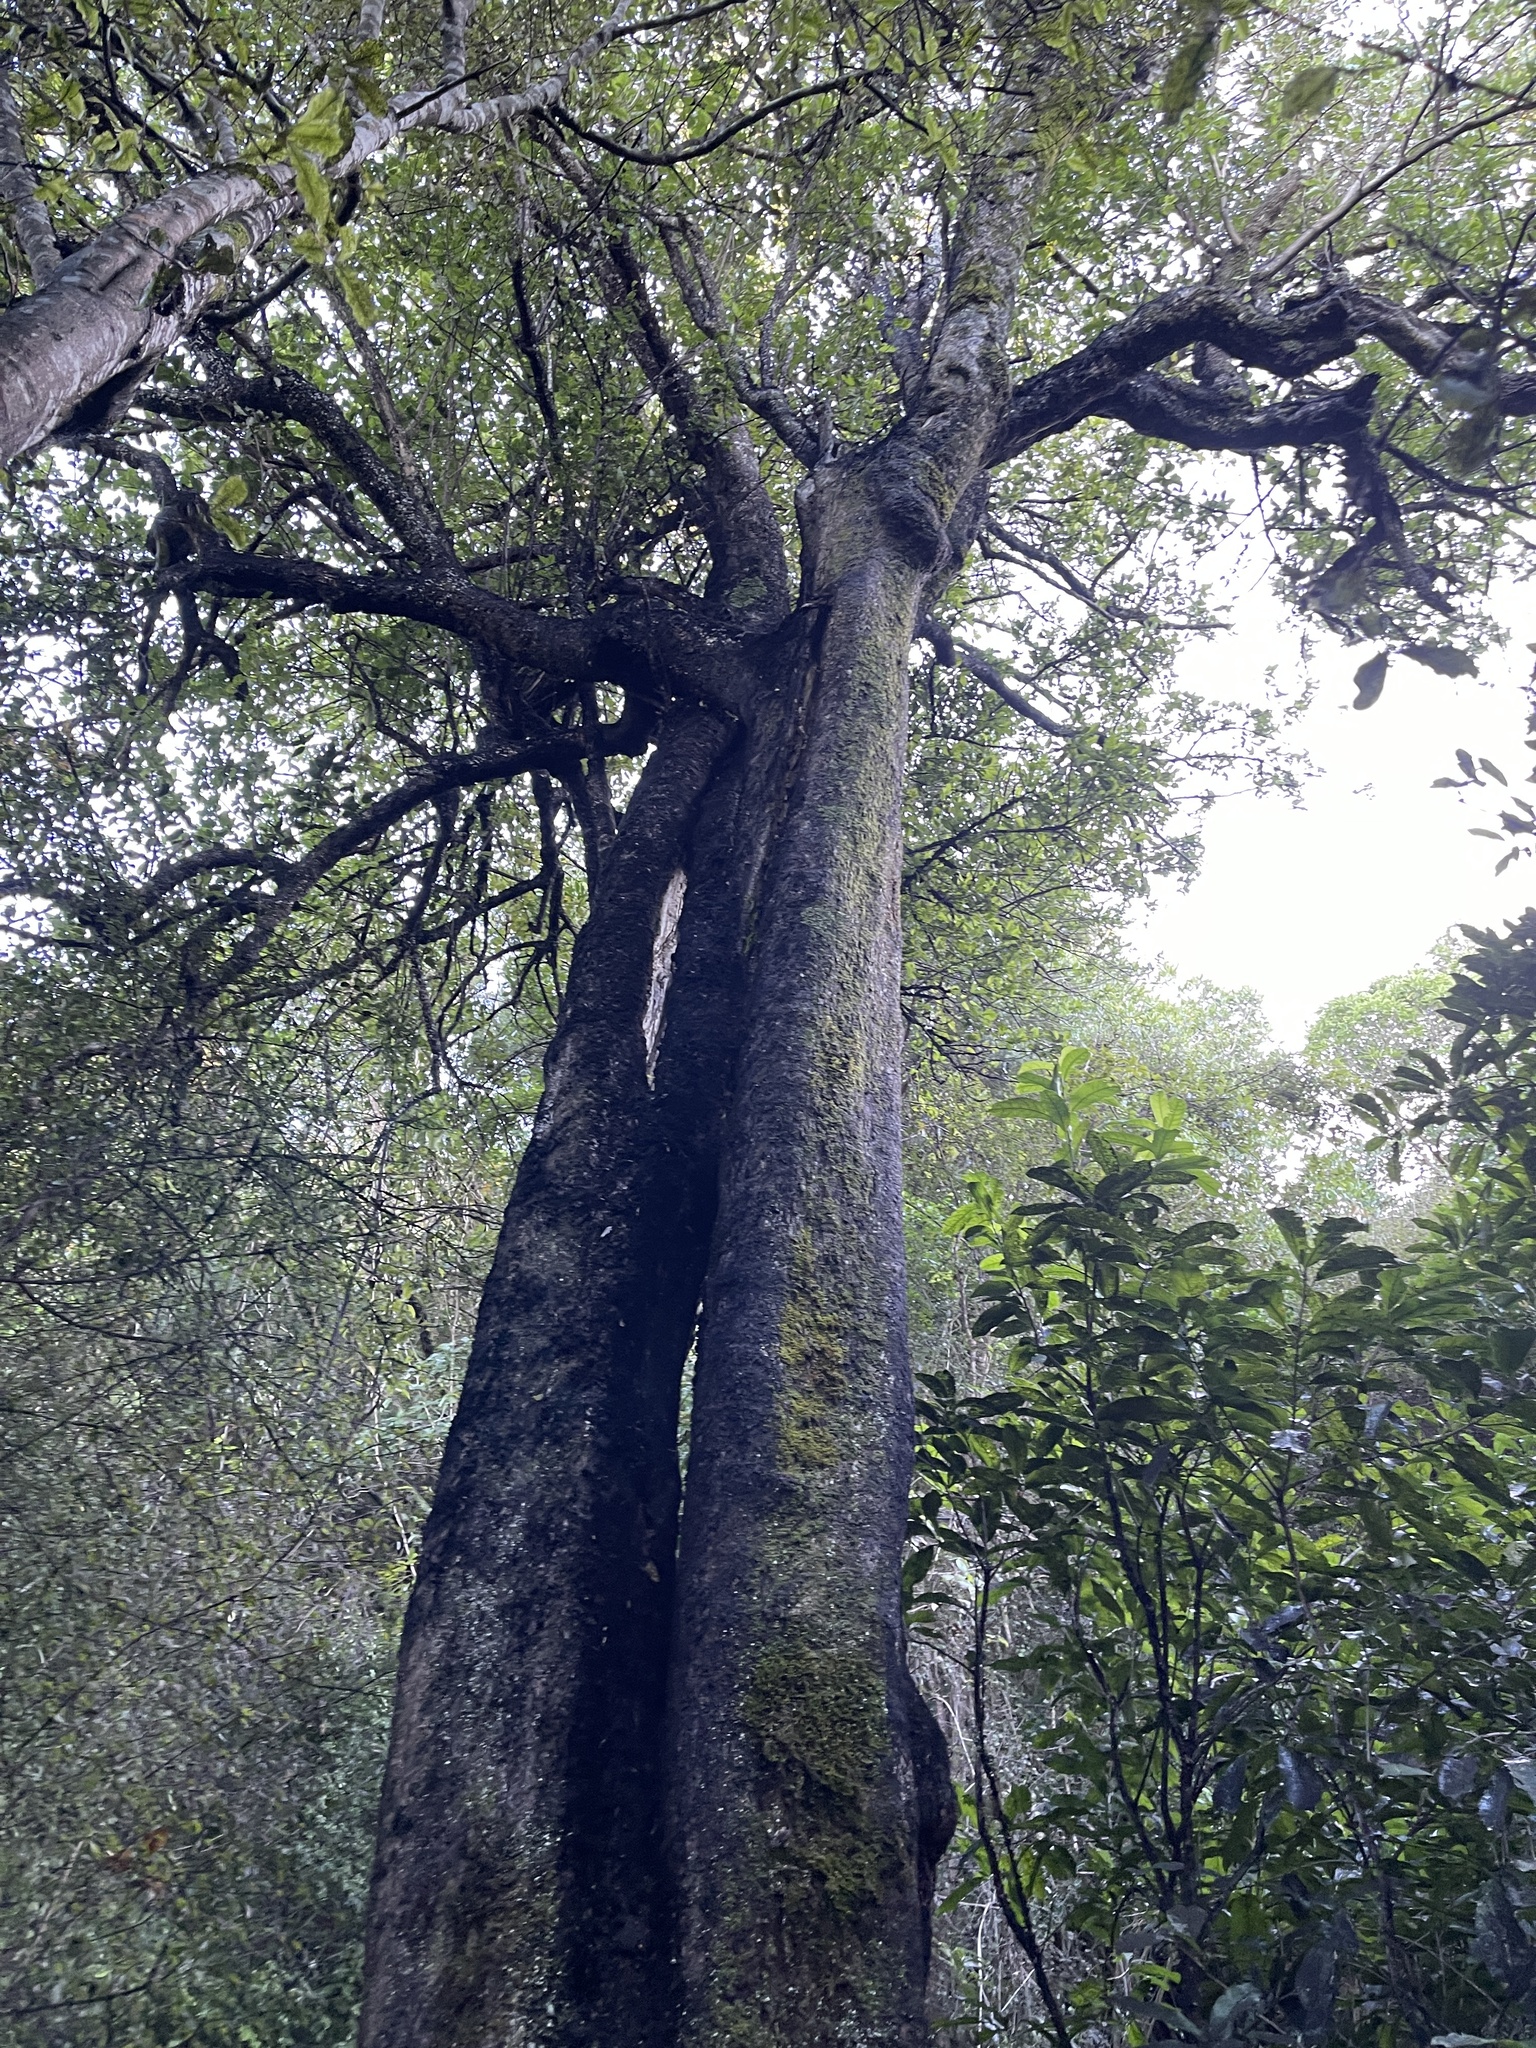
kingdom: Plantae
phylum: Tracheophyta
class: Magnoliopsida
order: Apiales
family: Pennantiaceae
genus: Pennantia
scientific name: Pennantia corymbosa
